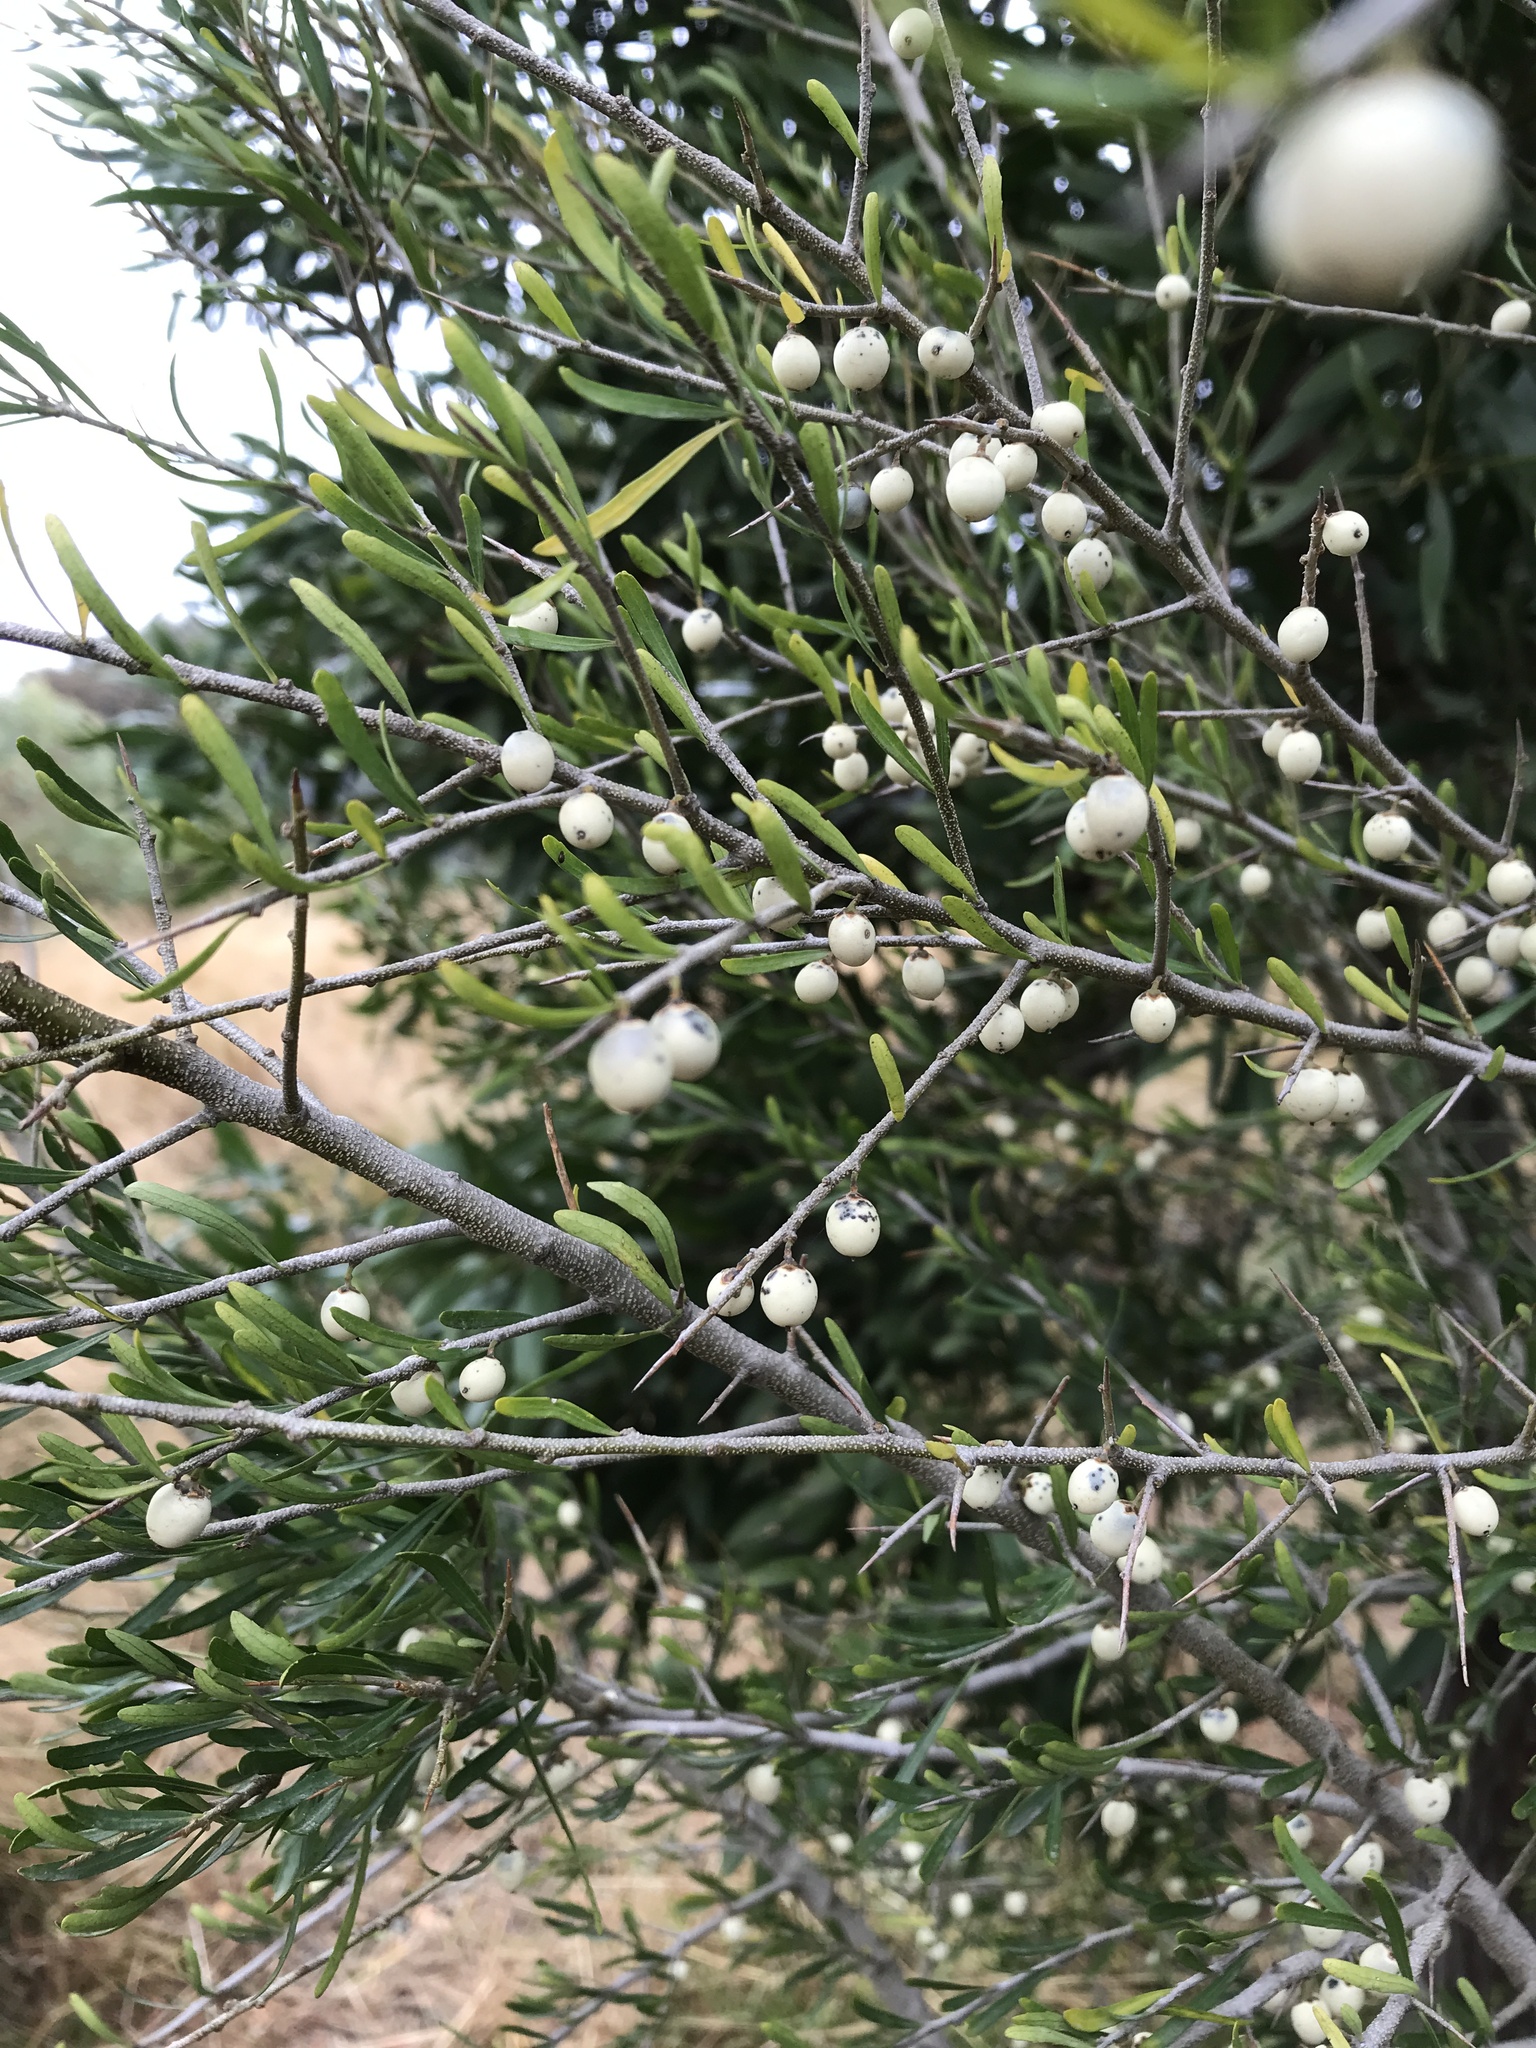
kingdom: Plantae
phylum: Tracheophyta
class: Magnoliopsida
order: Malpighiales
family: Violaceae
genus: Melicytus
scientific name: Melicytus dentatus
